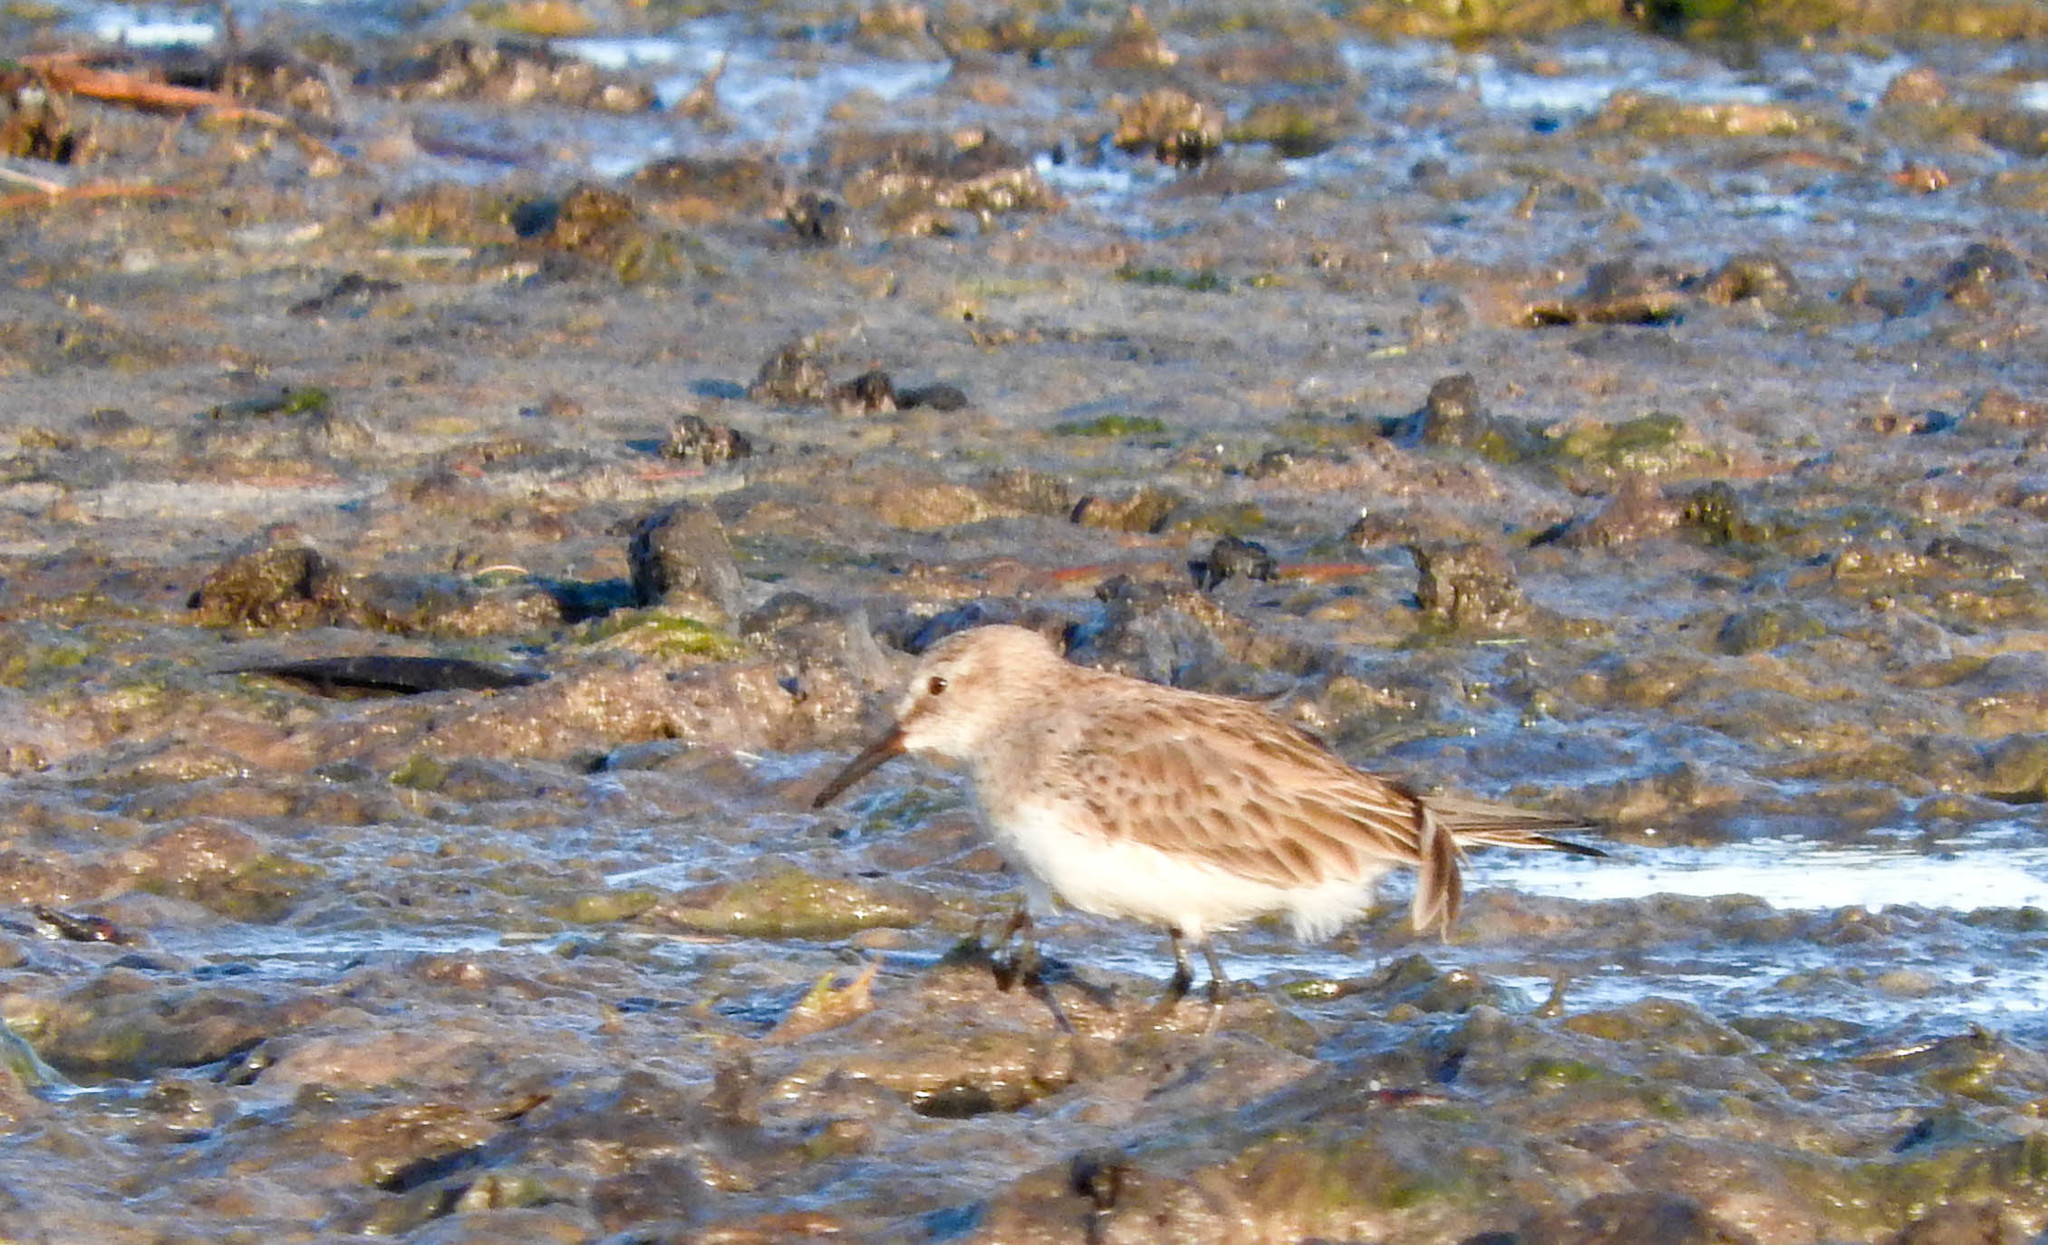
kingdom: Animalia
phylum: Chordata
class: Aves
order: Charadriiformes
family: Scolopacidae
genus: Calidris
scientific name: Calidris fuscicollis
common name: White-rumped sandpiper
